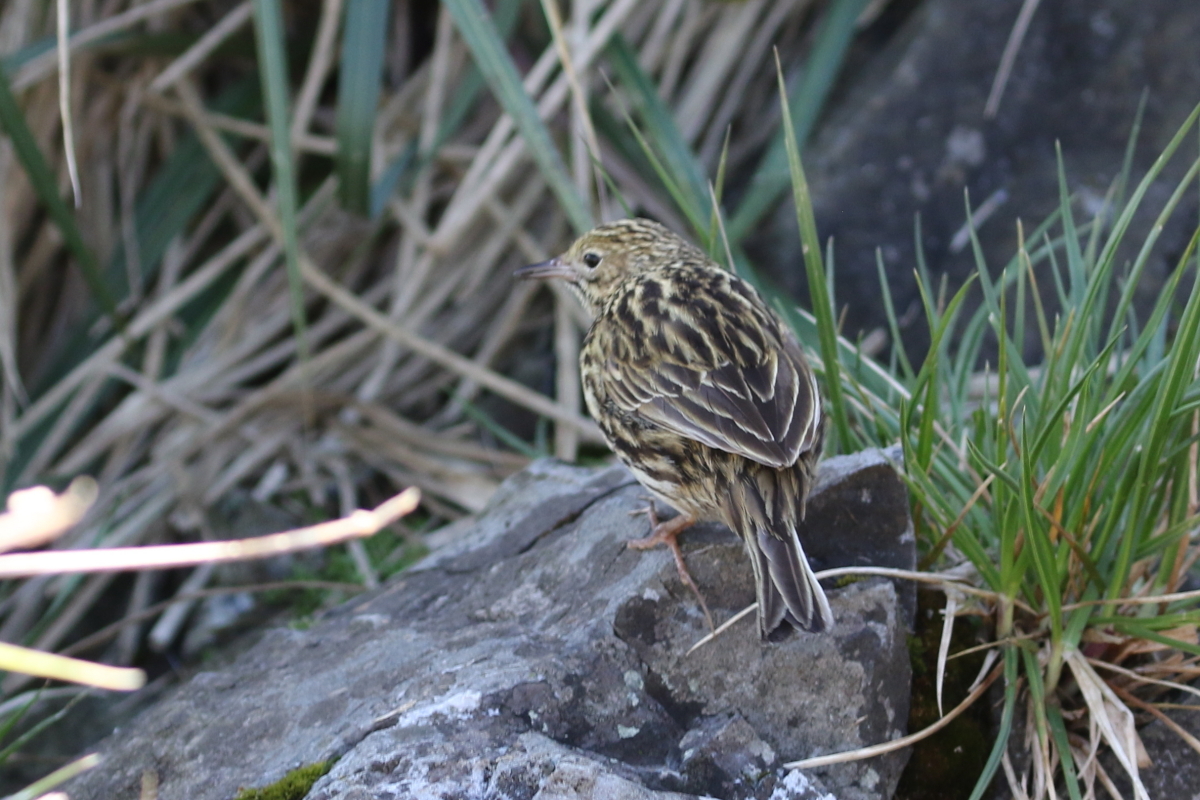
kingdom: Animalia
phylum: Chordata
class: Aves
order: Passeriformes
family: Motacillidae
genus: Anthus
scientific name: Anthus antarcticus
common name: South georgia pipit
